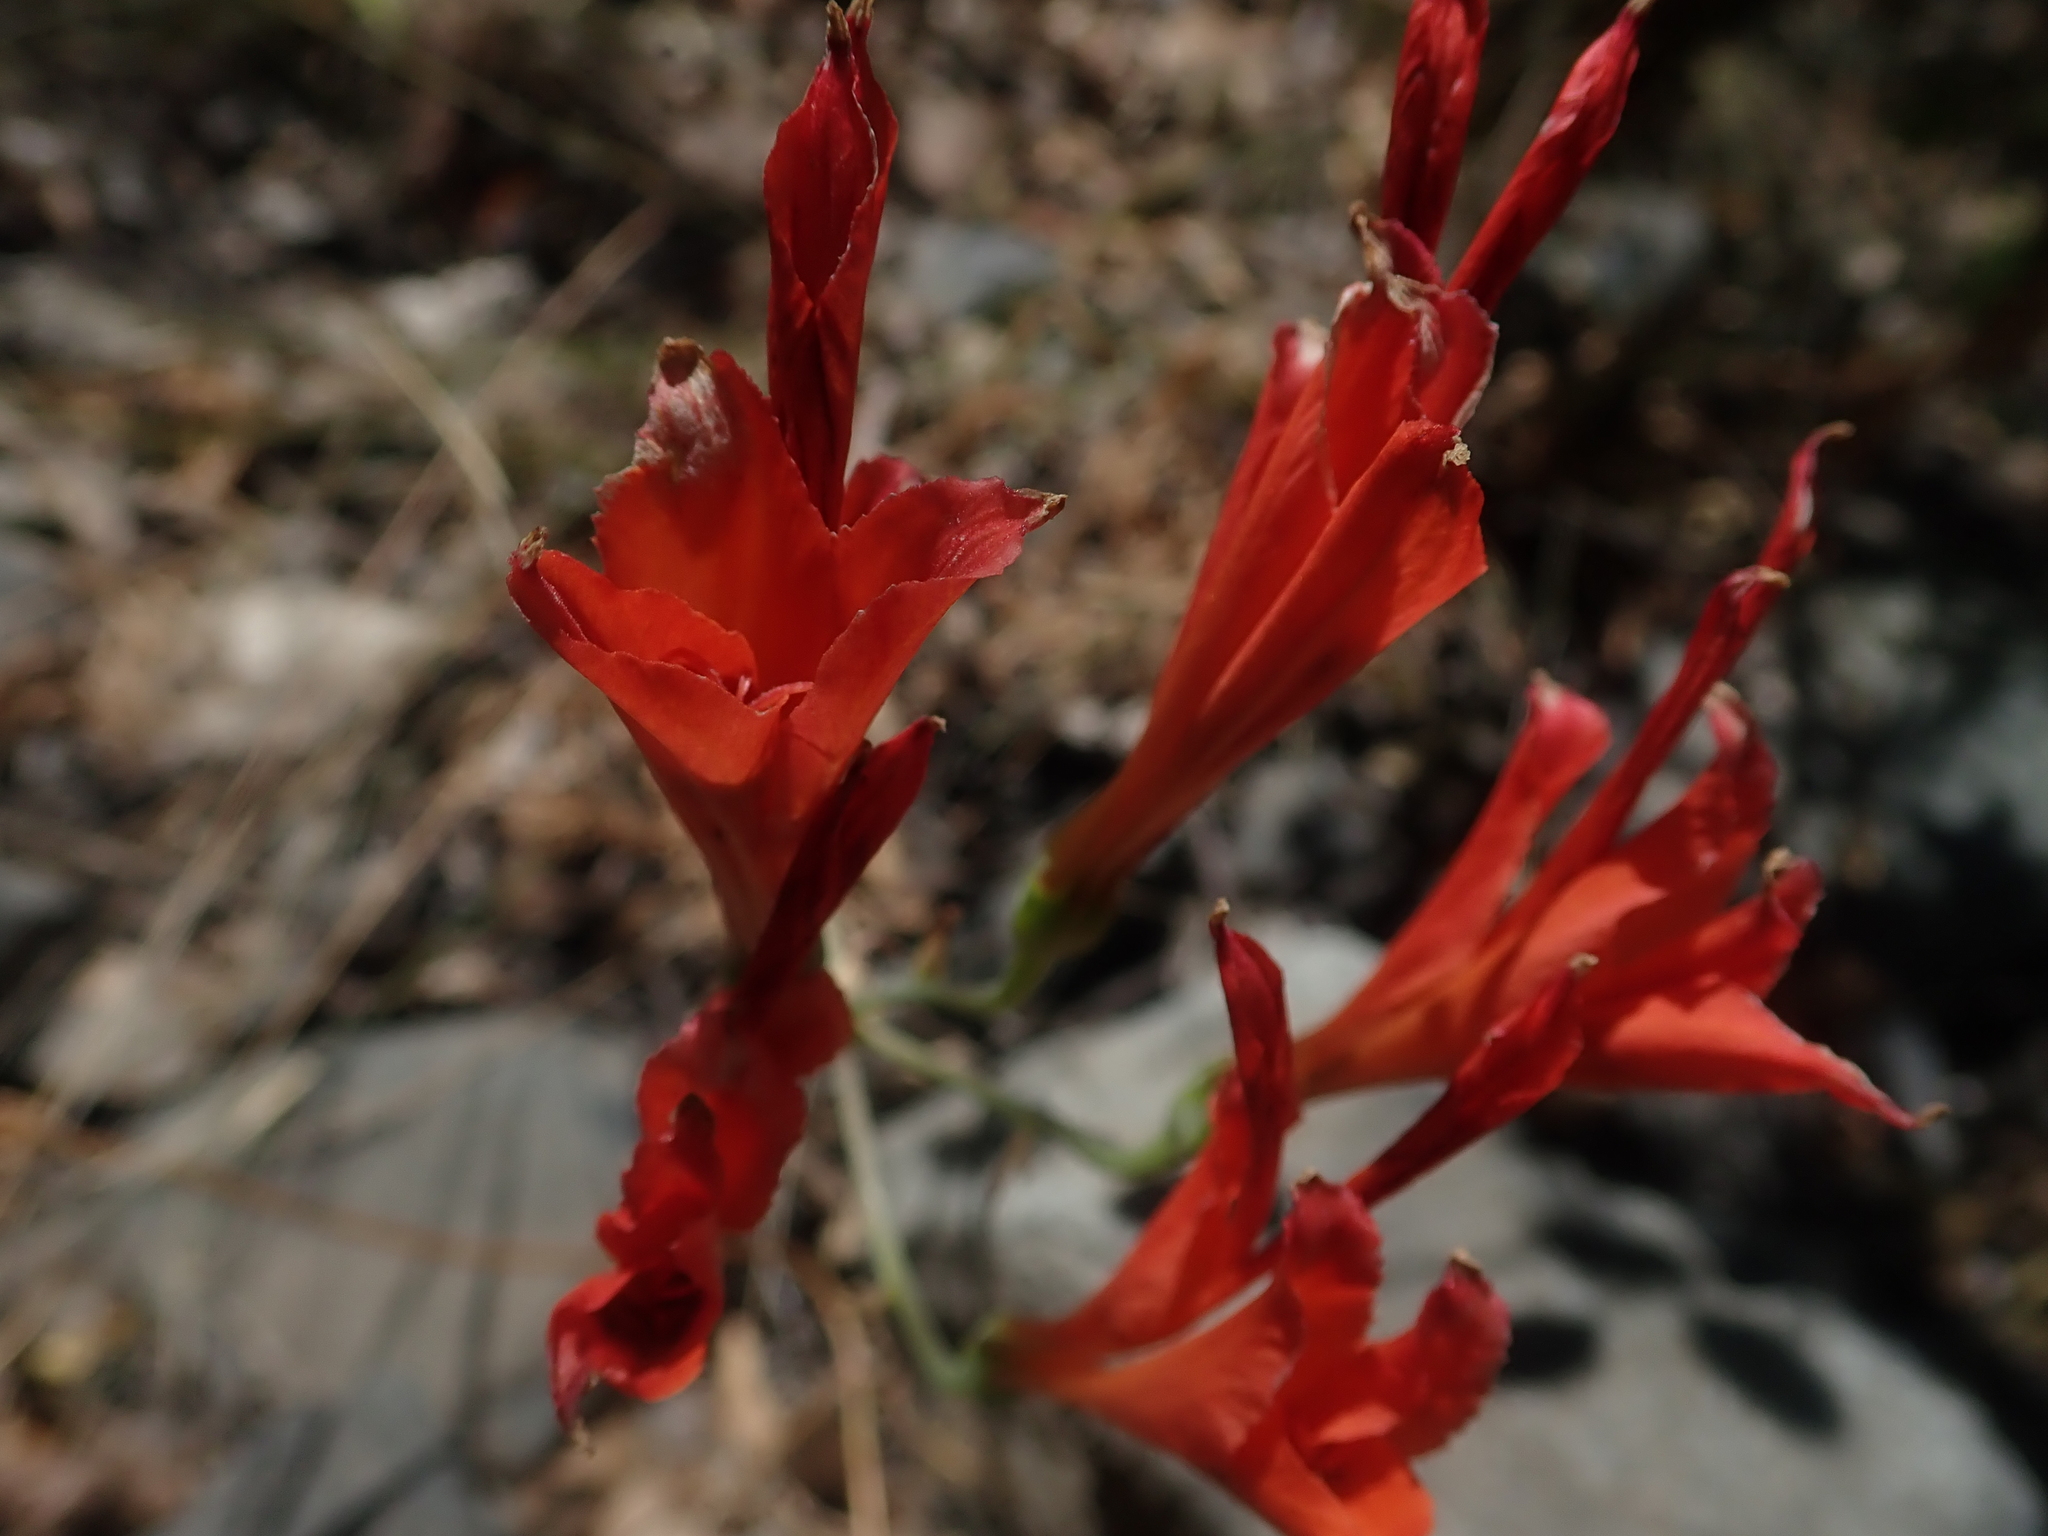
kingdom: Plantae
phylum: Tracheophyta
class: Liliopsida
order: Liliales
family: Alstroemeriaceae
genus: Alstroemeria
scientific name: Alstroemeria ligtu
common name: St. martin's-flower
